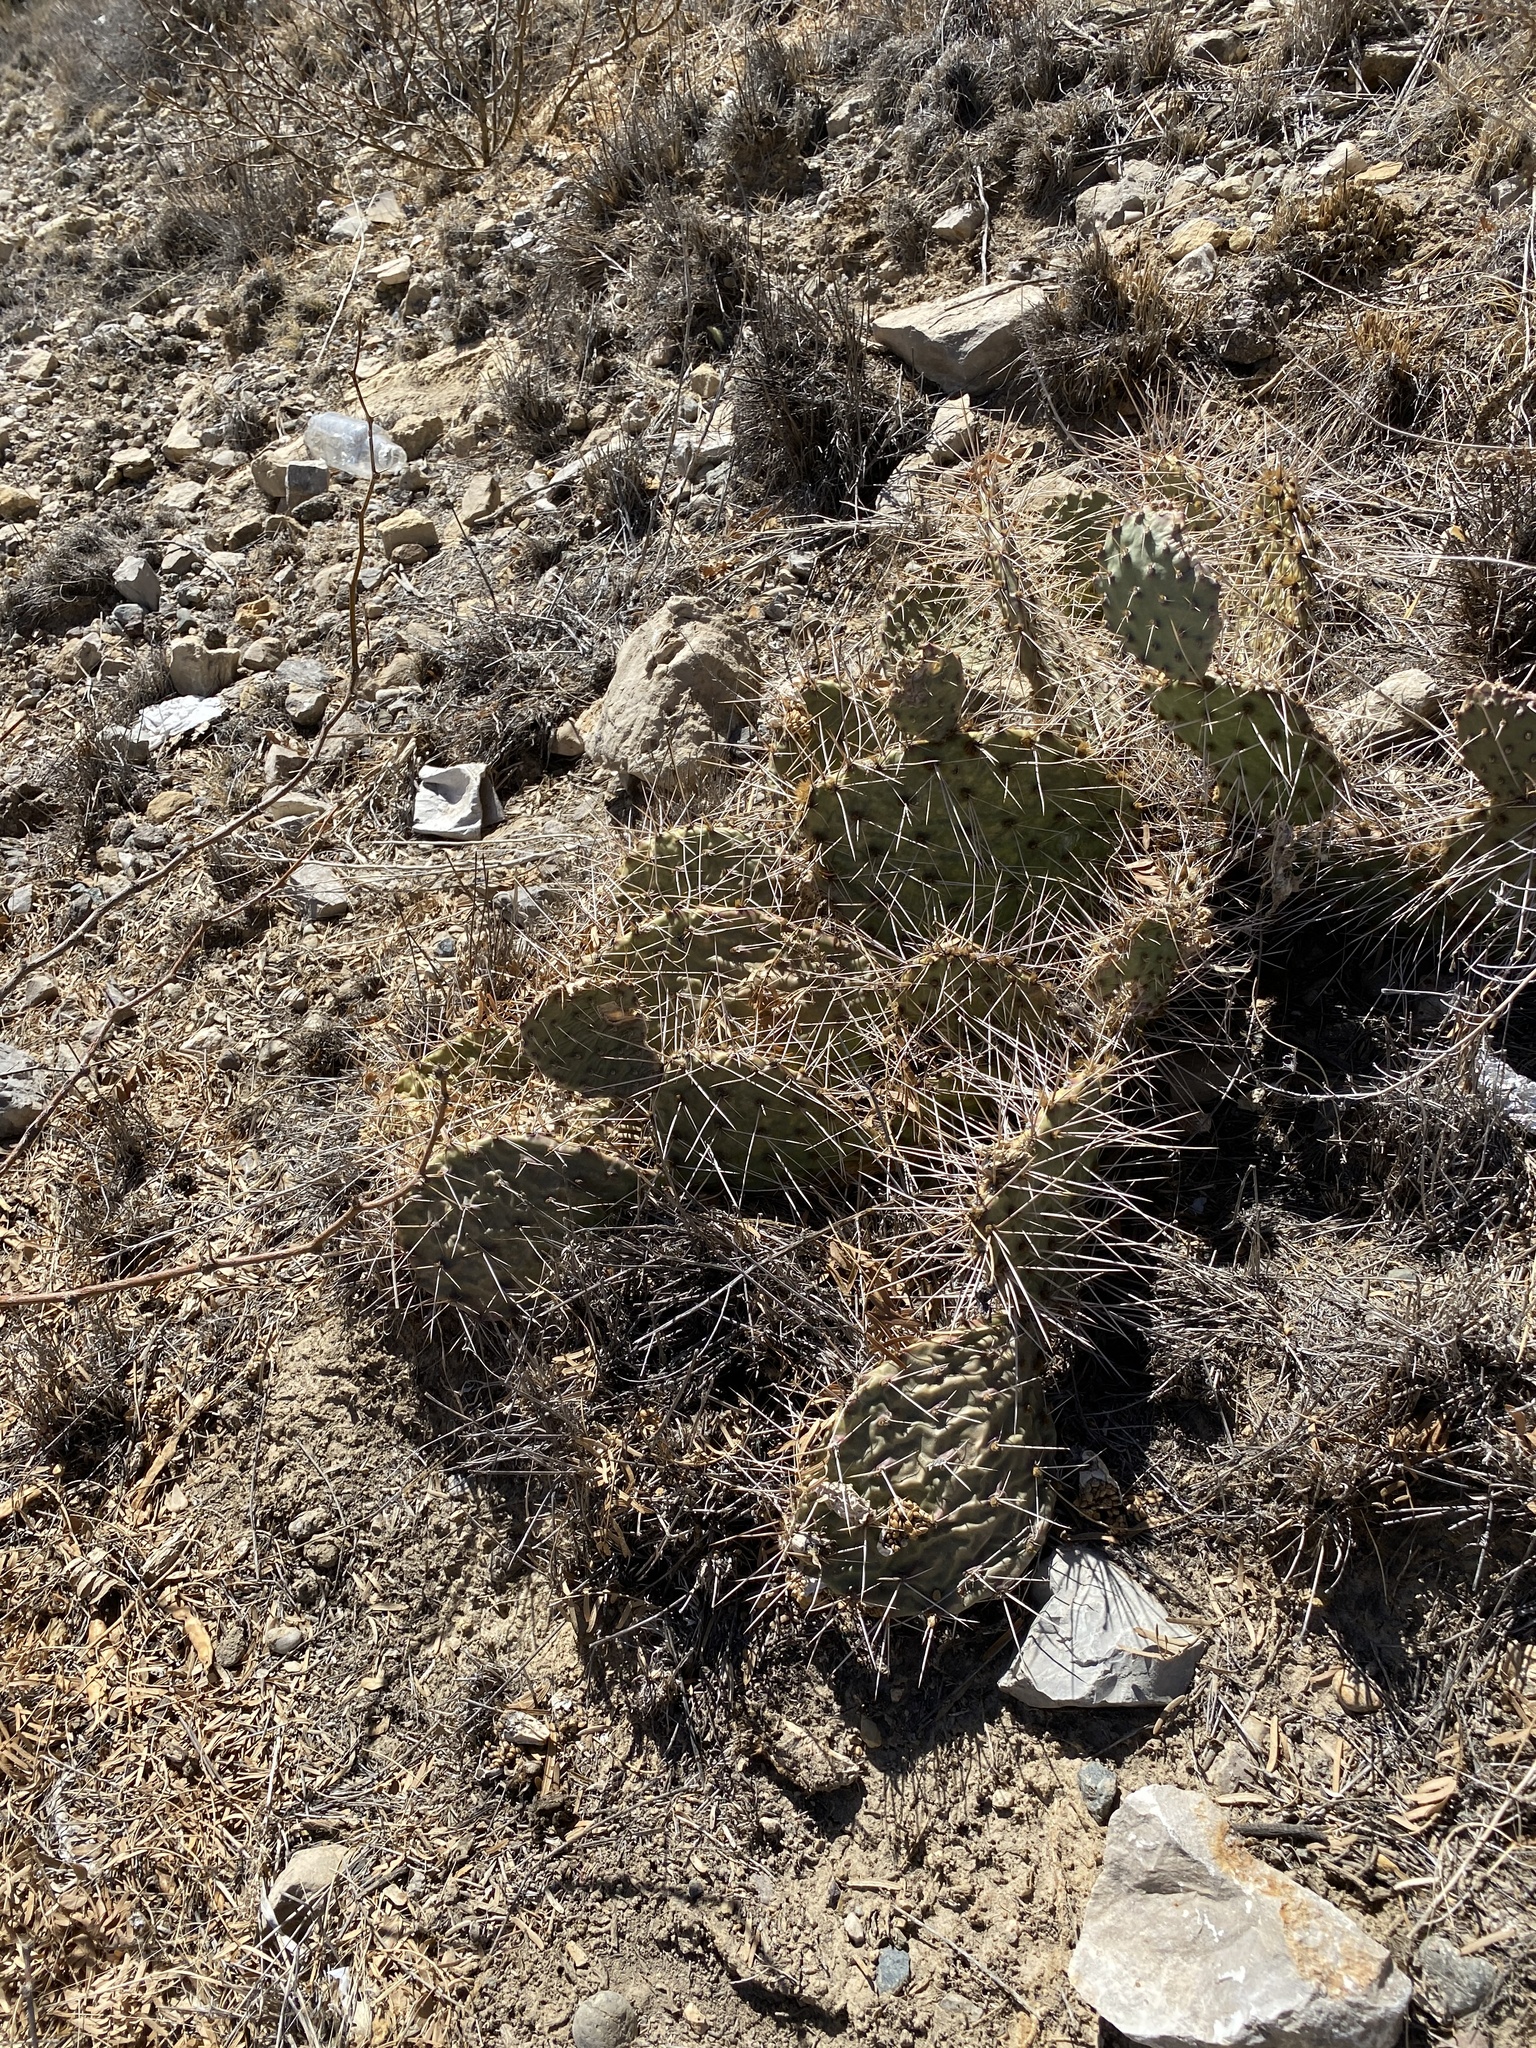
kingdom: Plantae
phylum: Tracheophyta
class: Magnoliopsida
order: Caryophyllales
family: Cactaceae
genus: Opuntia
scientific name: Opuntia macrorhiza
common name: Grassland pricklypear
